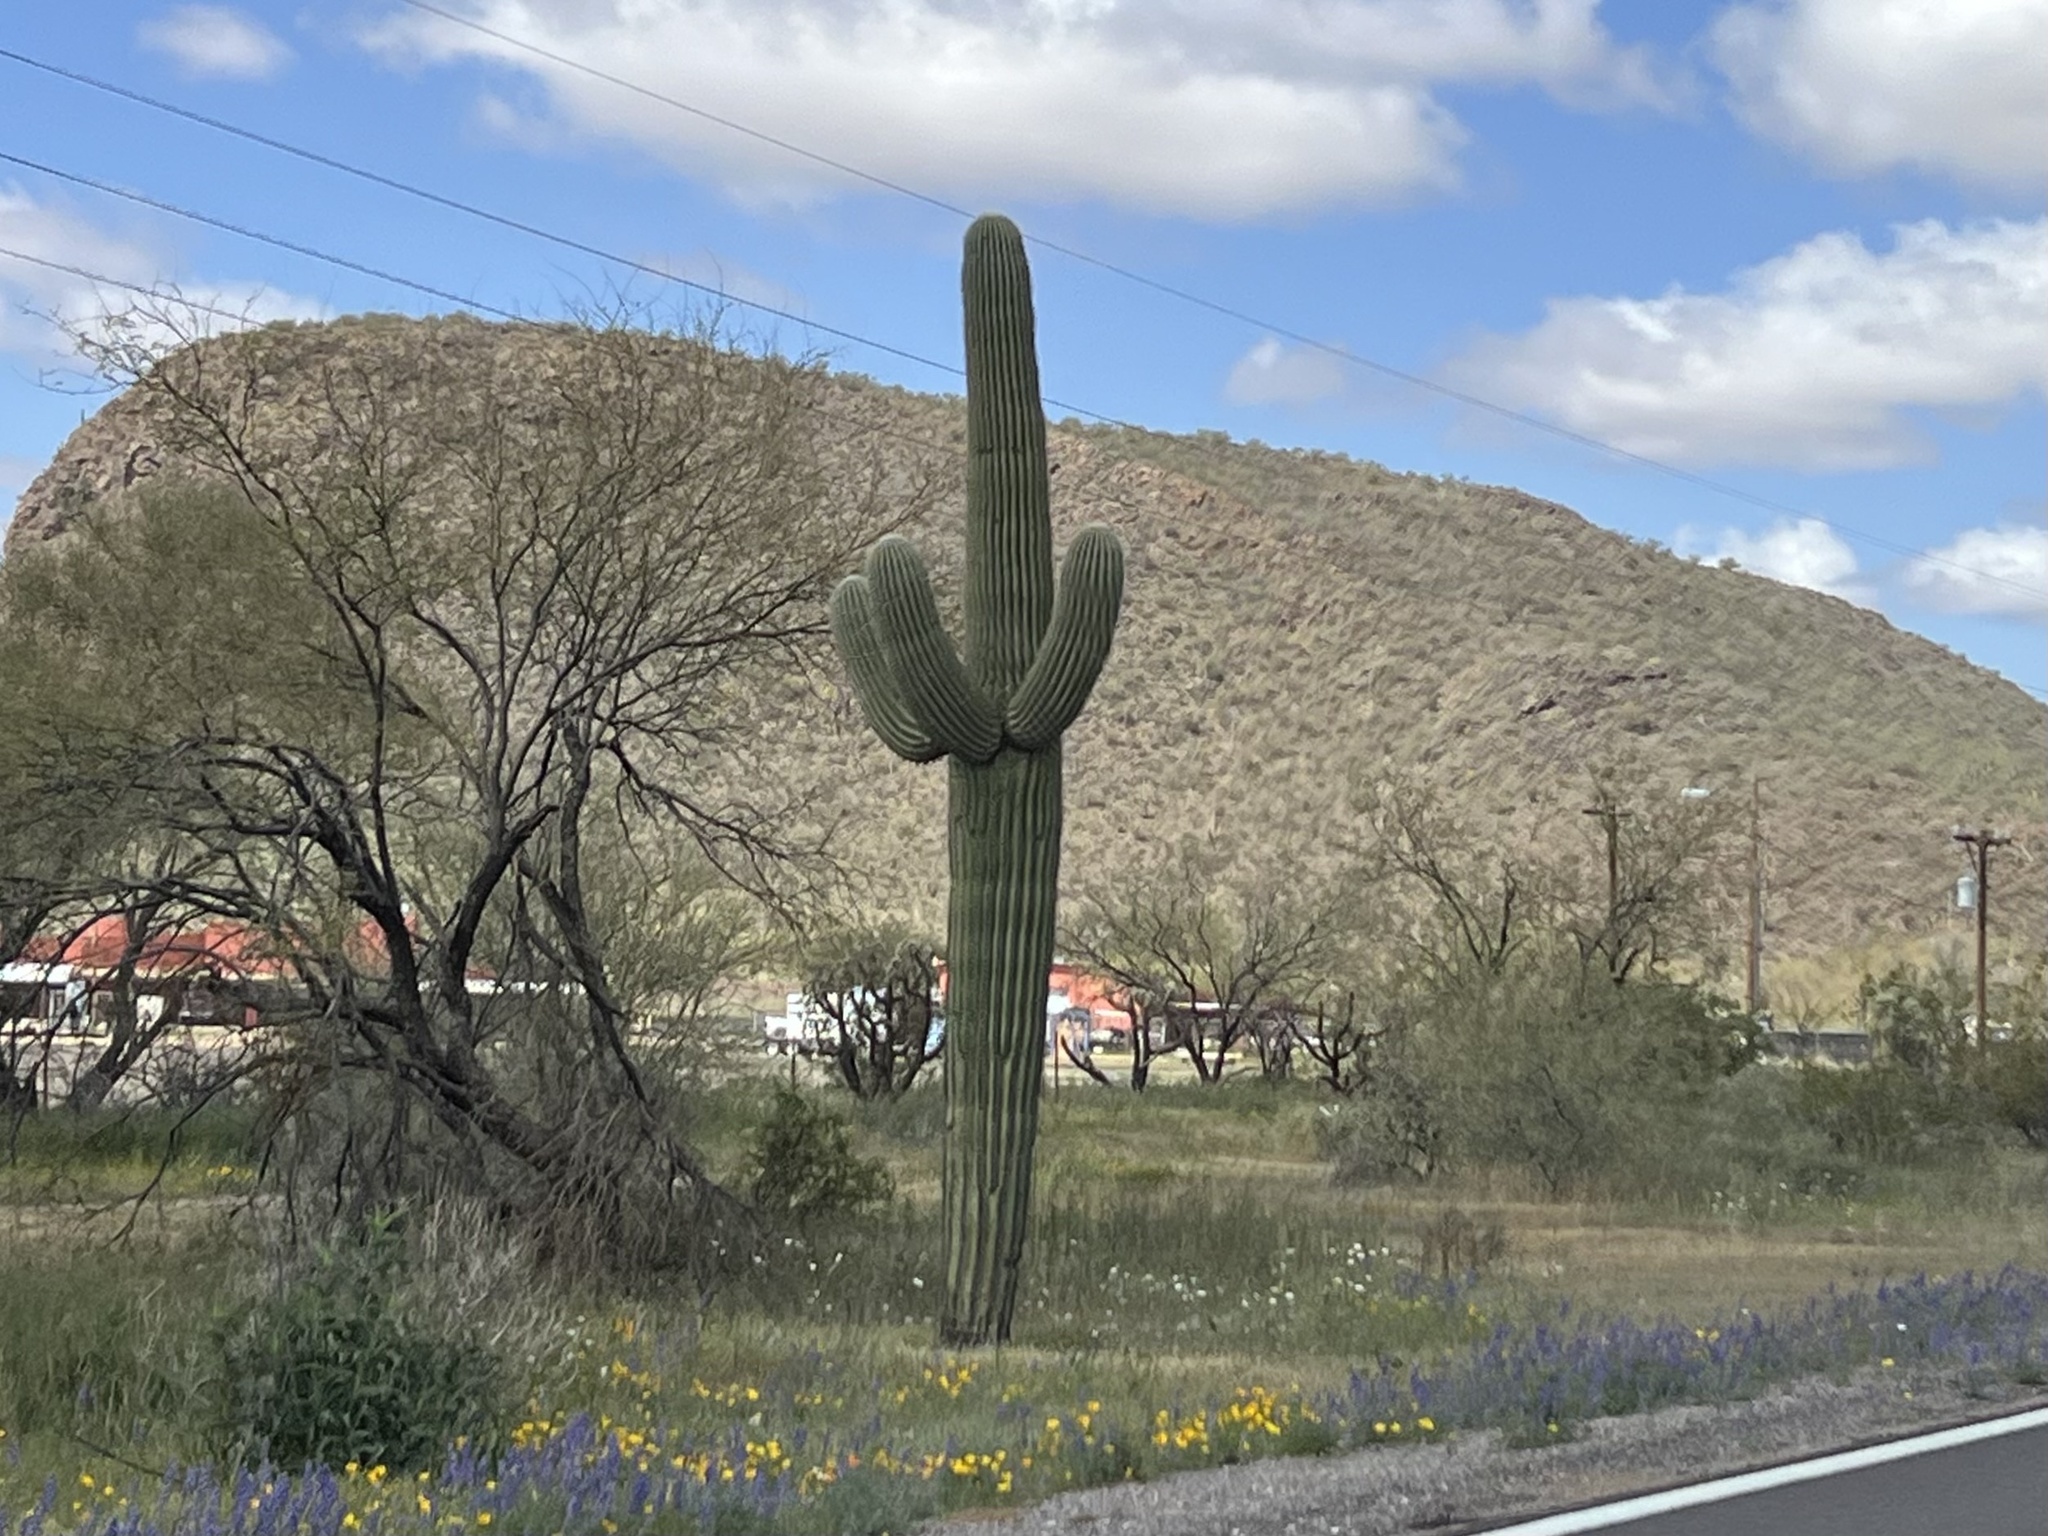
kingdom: Plantae
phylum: Tracheophyta
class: Magnoliopsida
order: Caryophyllales
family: Cactaceae
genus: Carnegiea
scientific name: Carnegiea gigantea
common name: Saguaro
